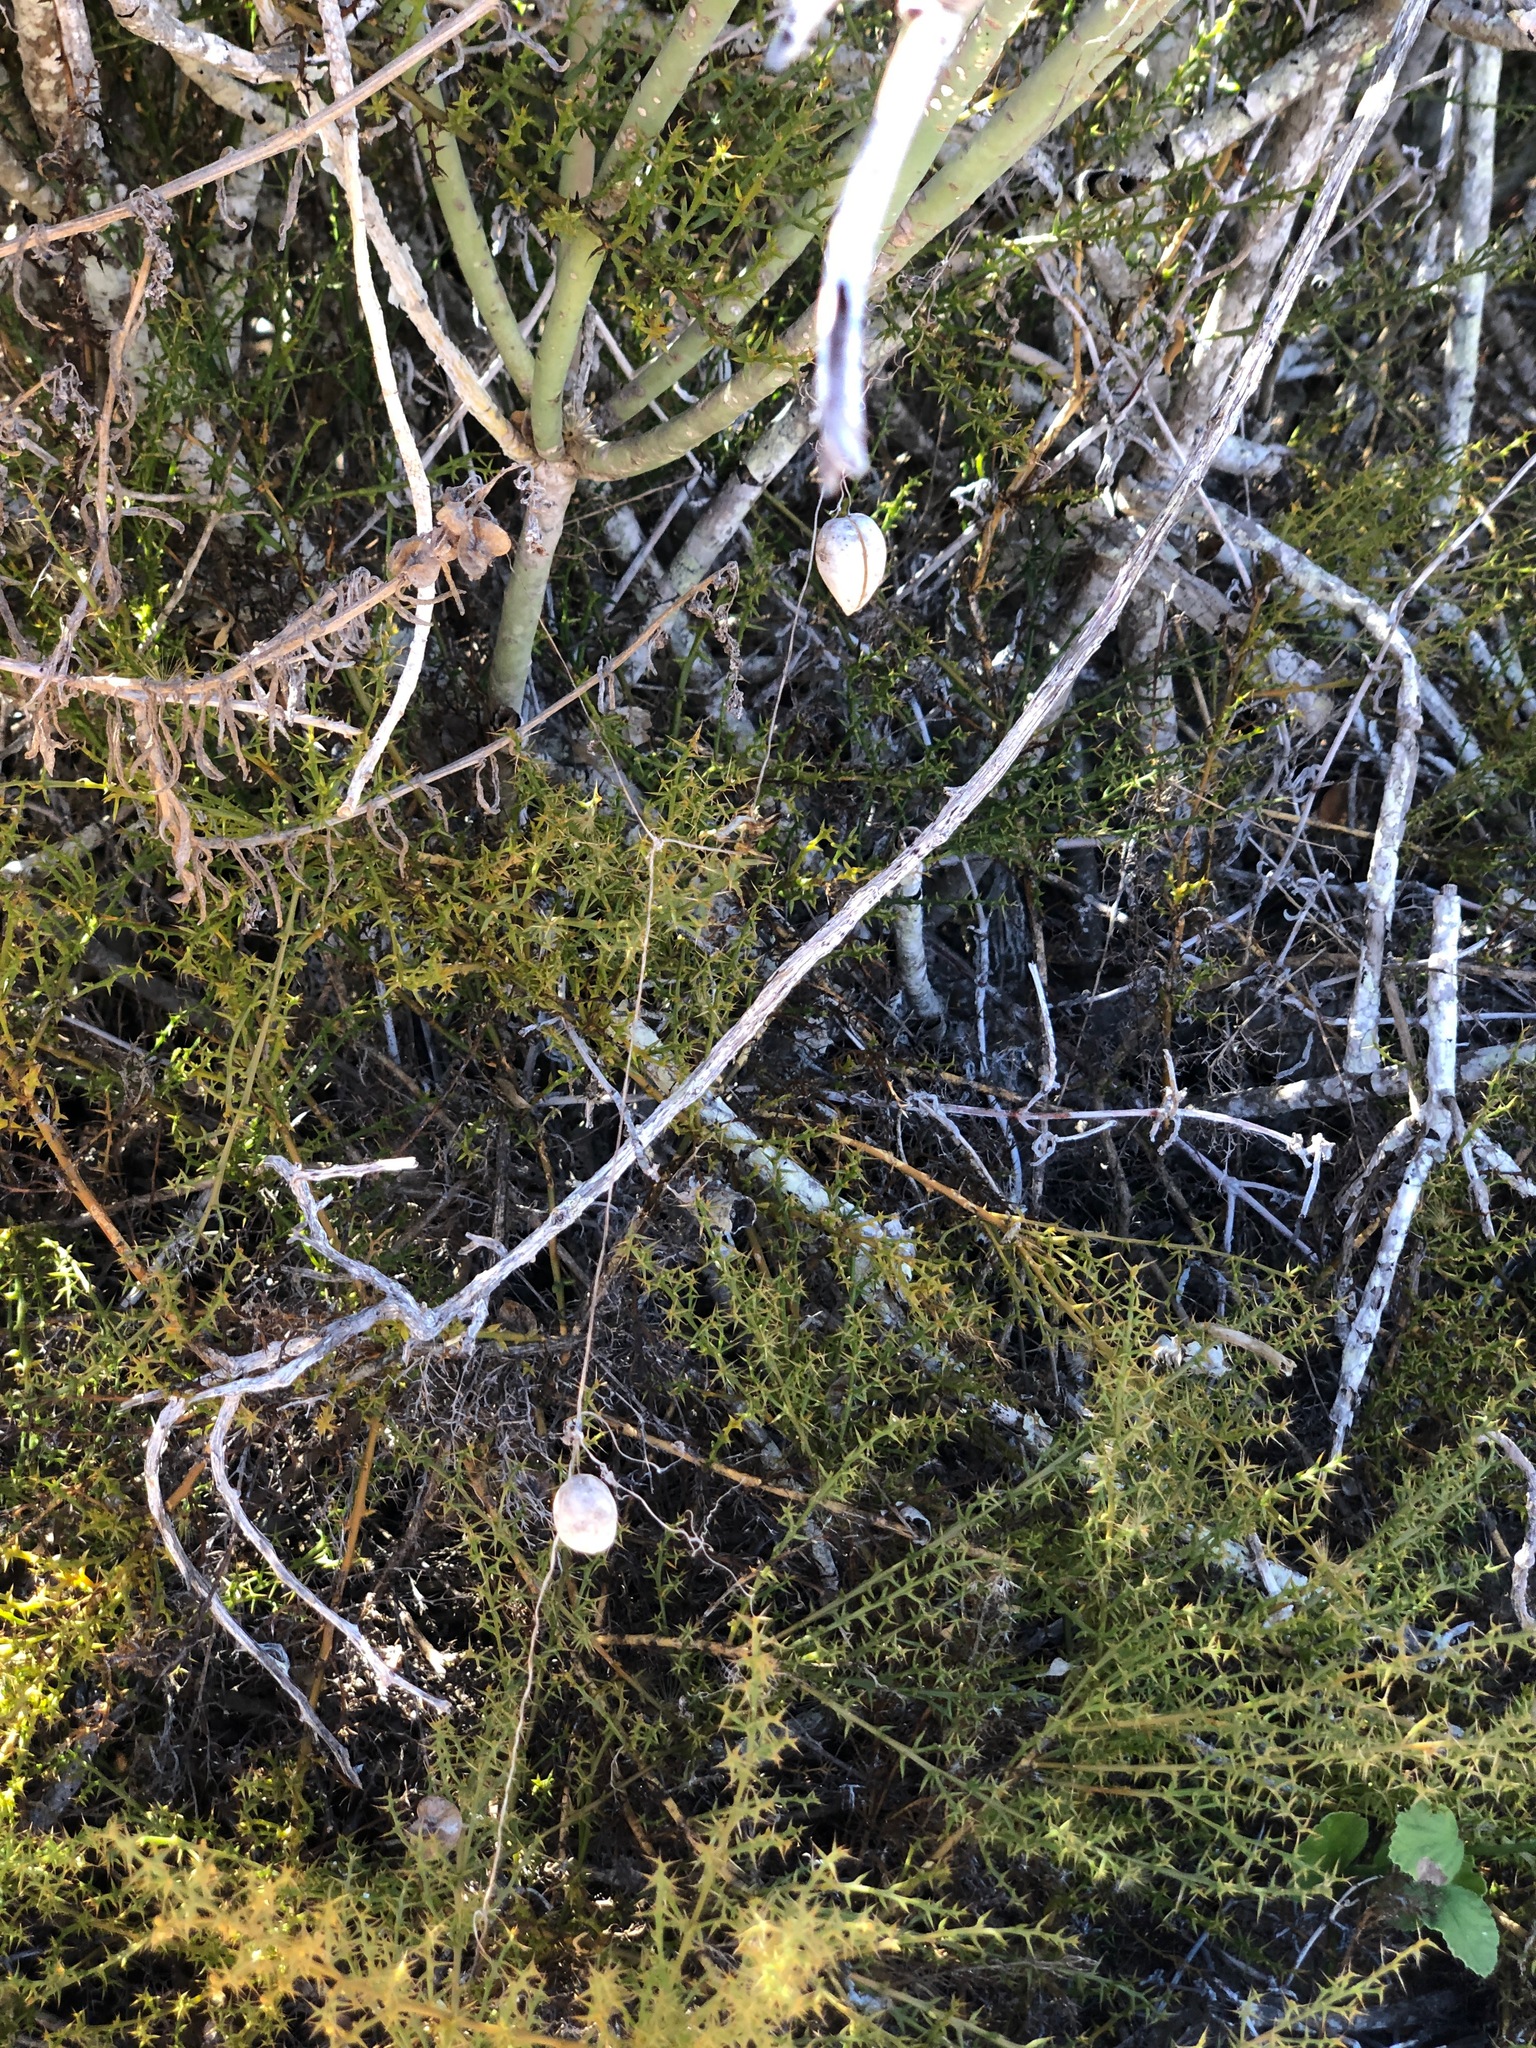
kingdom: Plantae
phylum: Tracheophyta
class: Magnoliopsida
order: Ranunculales
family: Papaveraceae
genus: Cysticapnos
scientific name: Cysticapnos vesicaria
